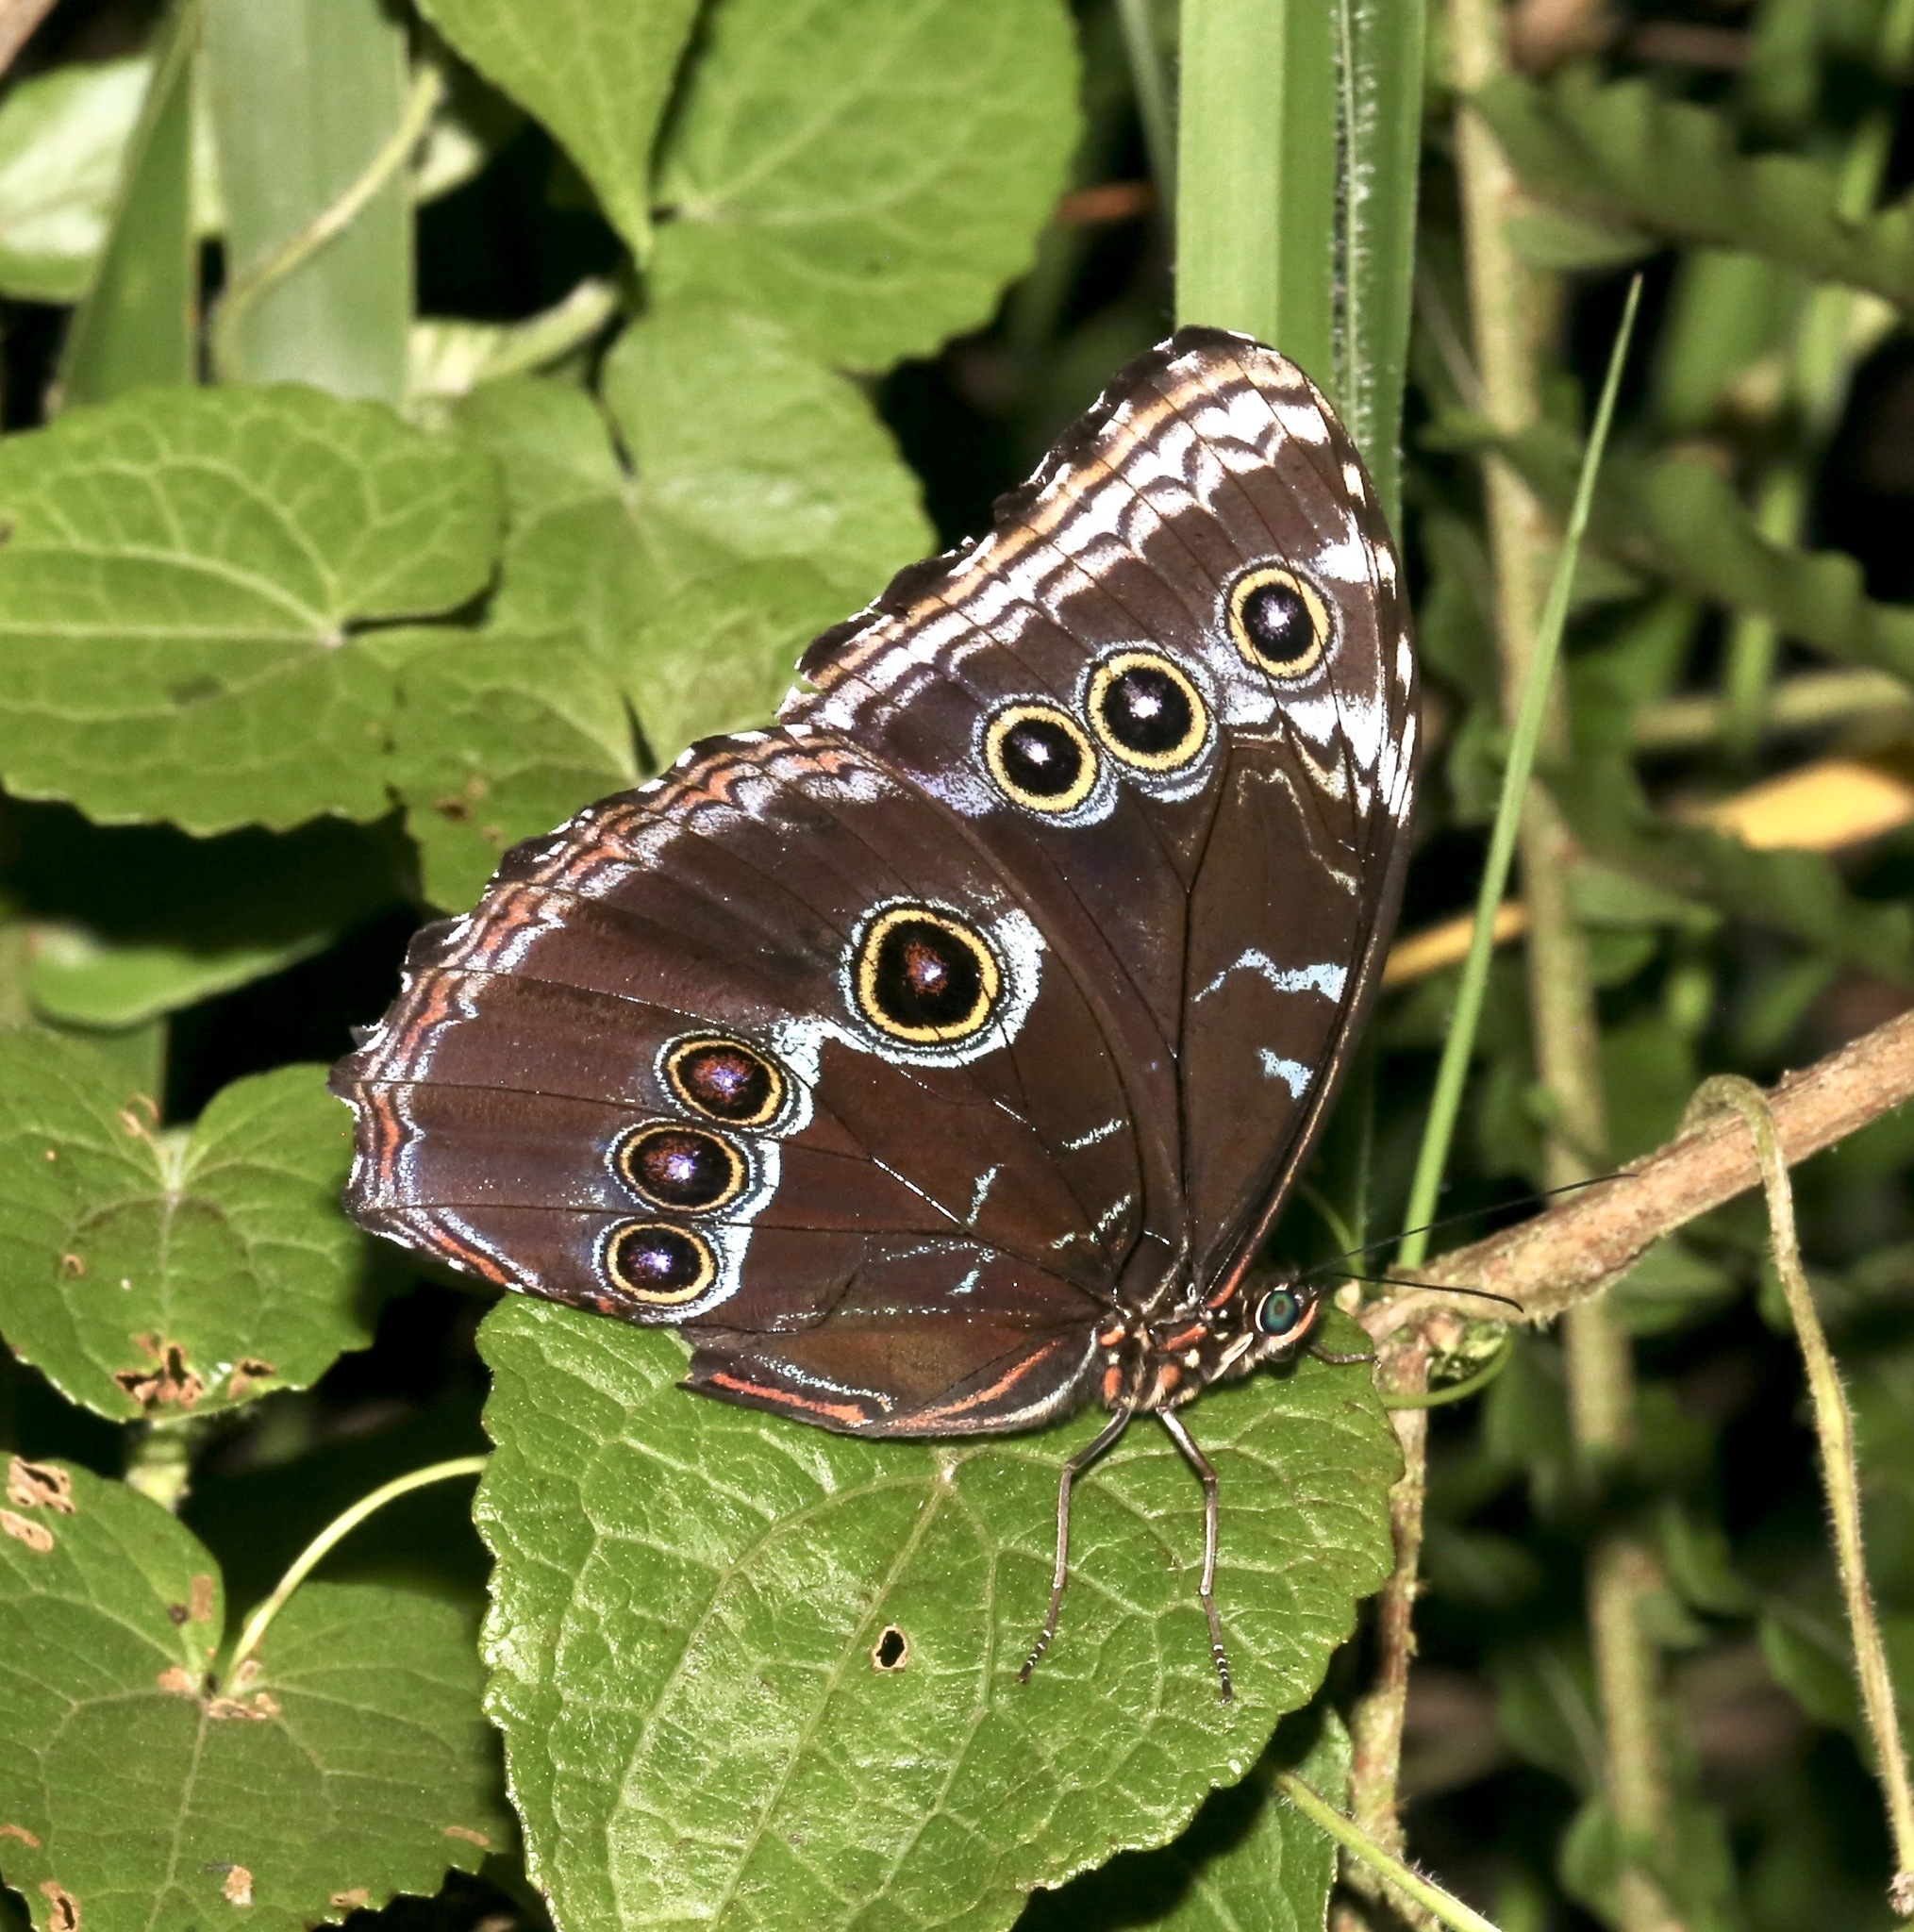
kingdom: Animalia
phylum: Arthropoda
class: Insecta
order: Lepidoptera
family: Nymphalidae
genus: Morpho
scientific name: Morpho helenor
